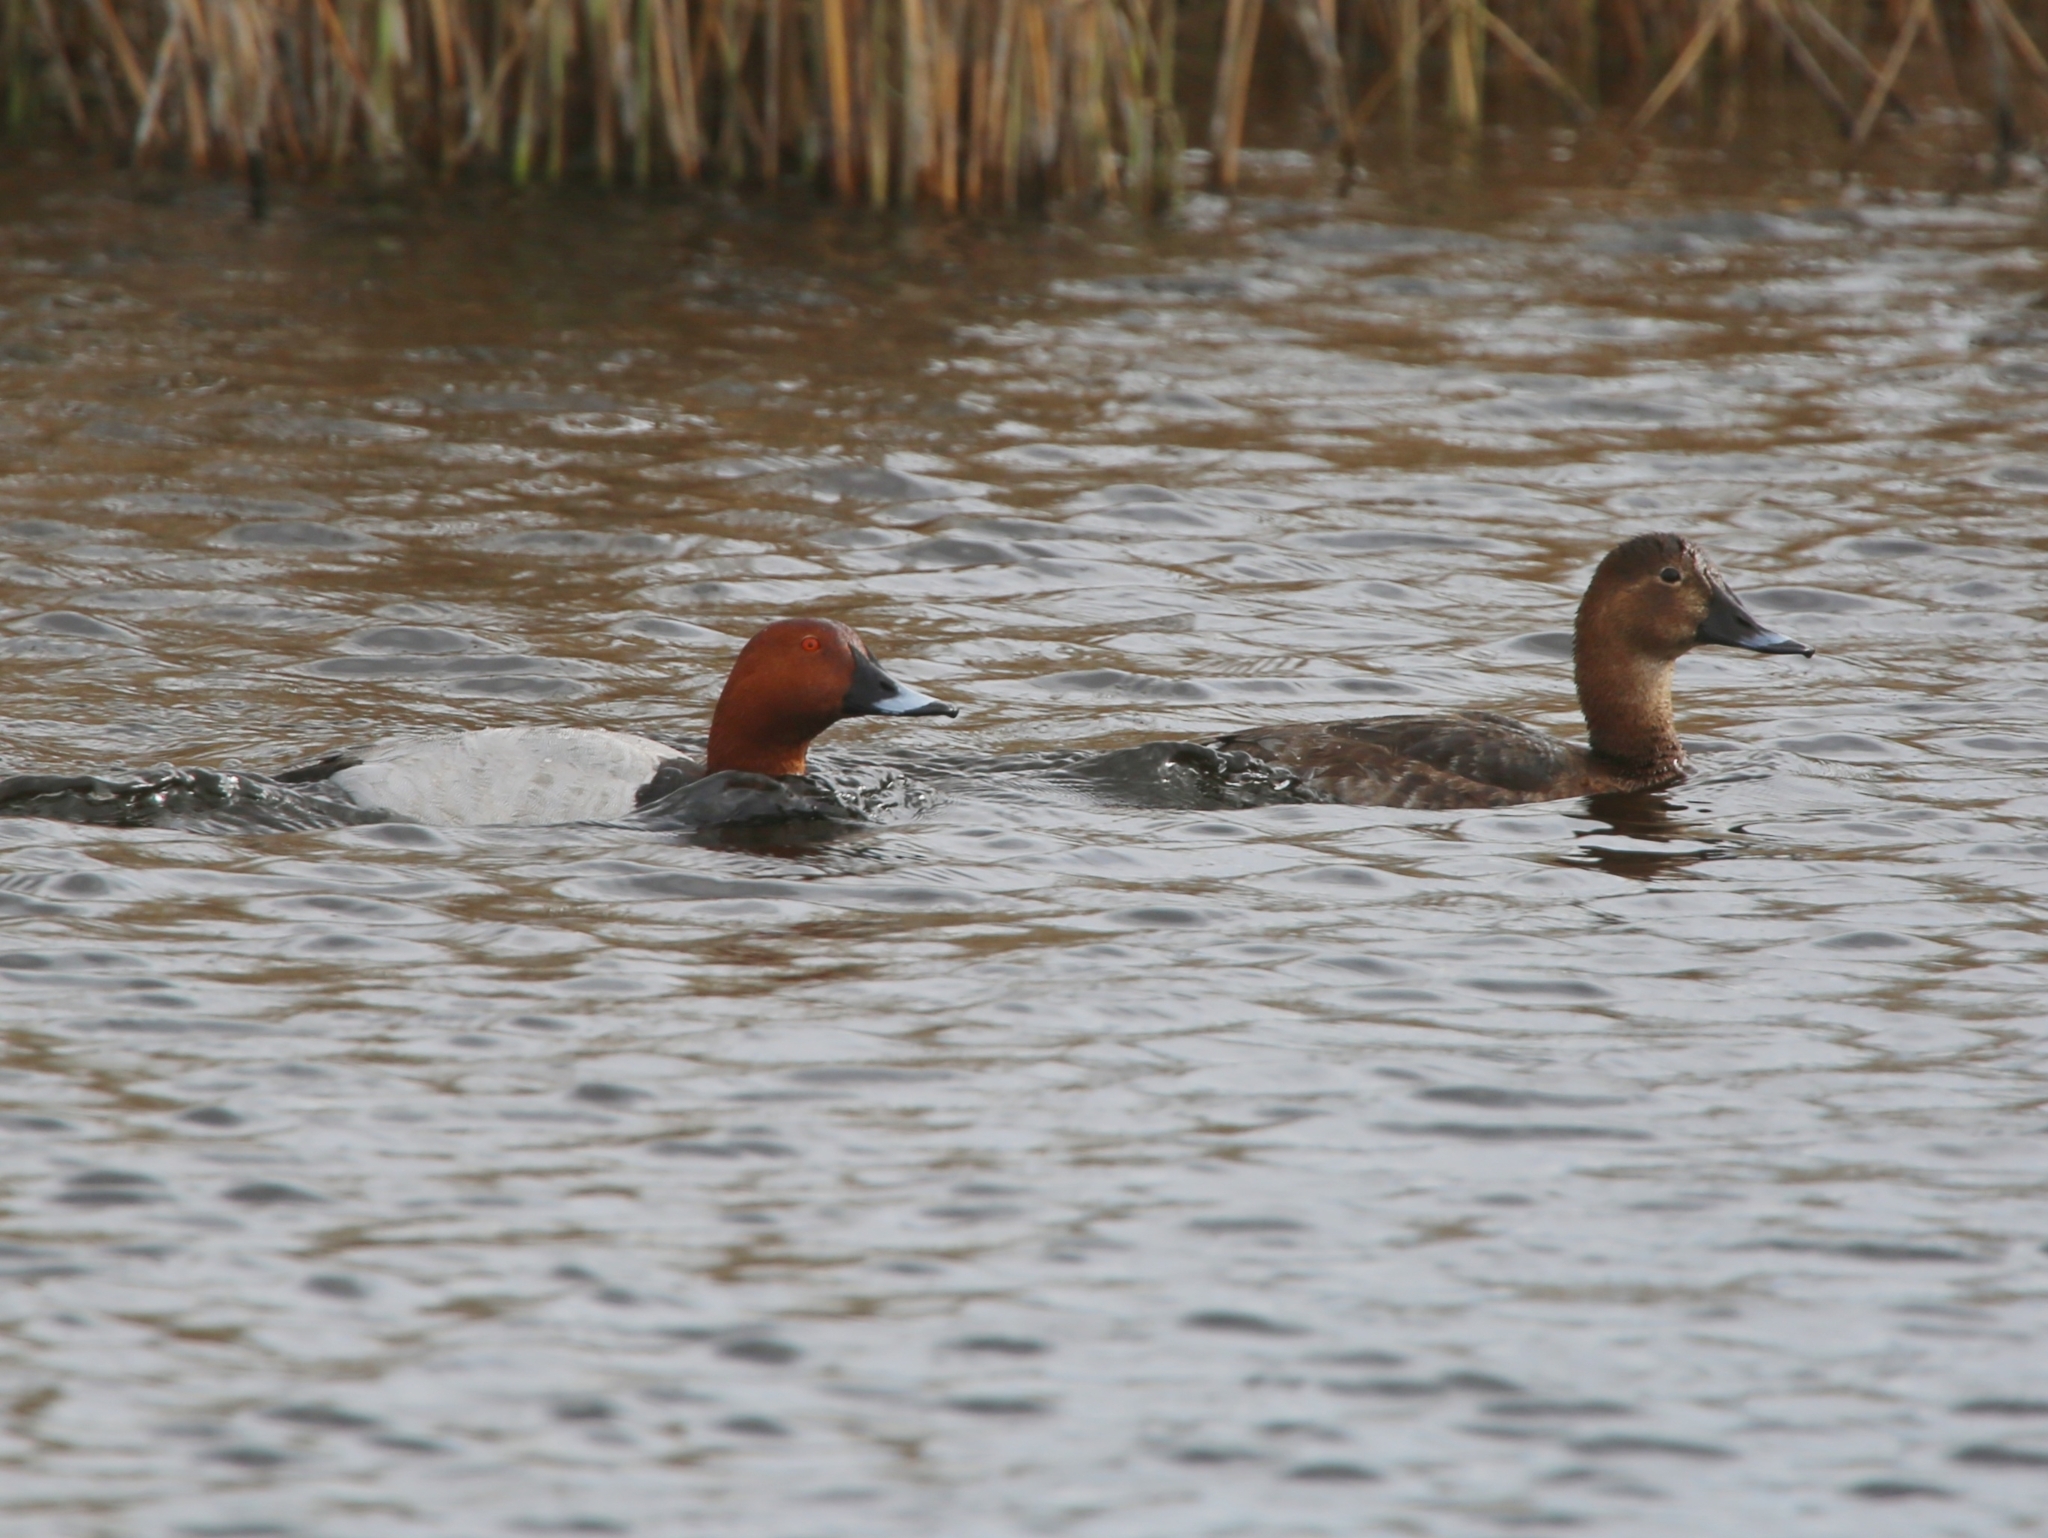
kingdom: Animalia
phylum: Chordata
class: Aves
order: Anseriformes
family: Anatidae
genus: Aythya
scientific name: Aythya ferina
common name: Common pochard
